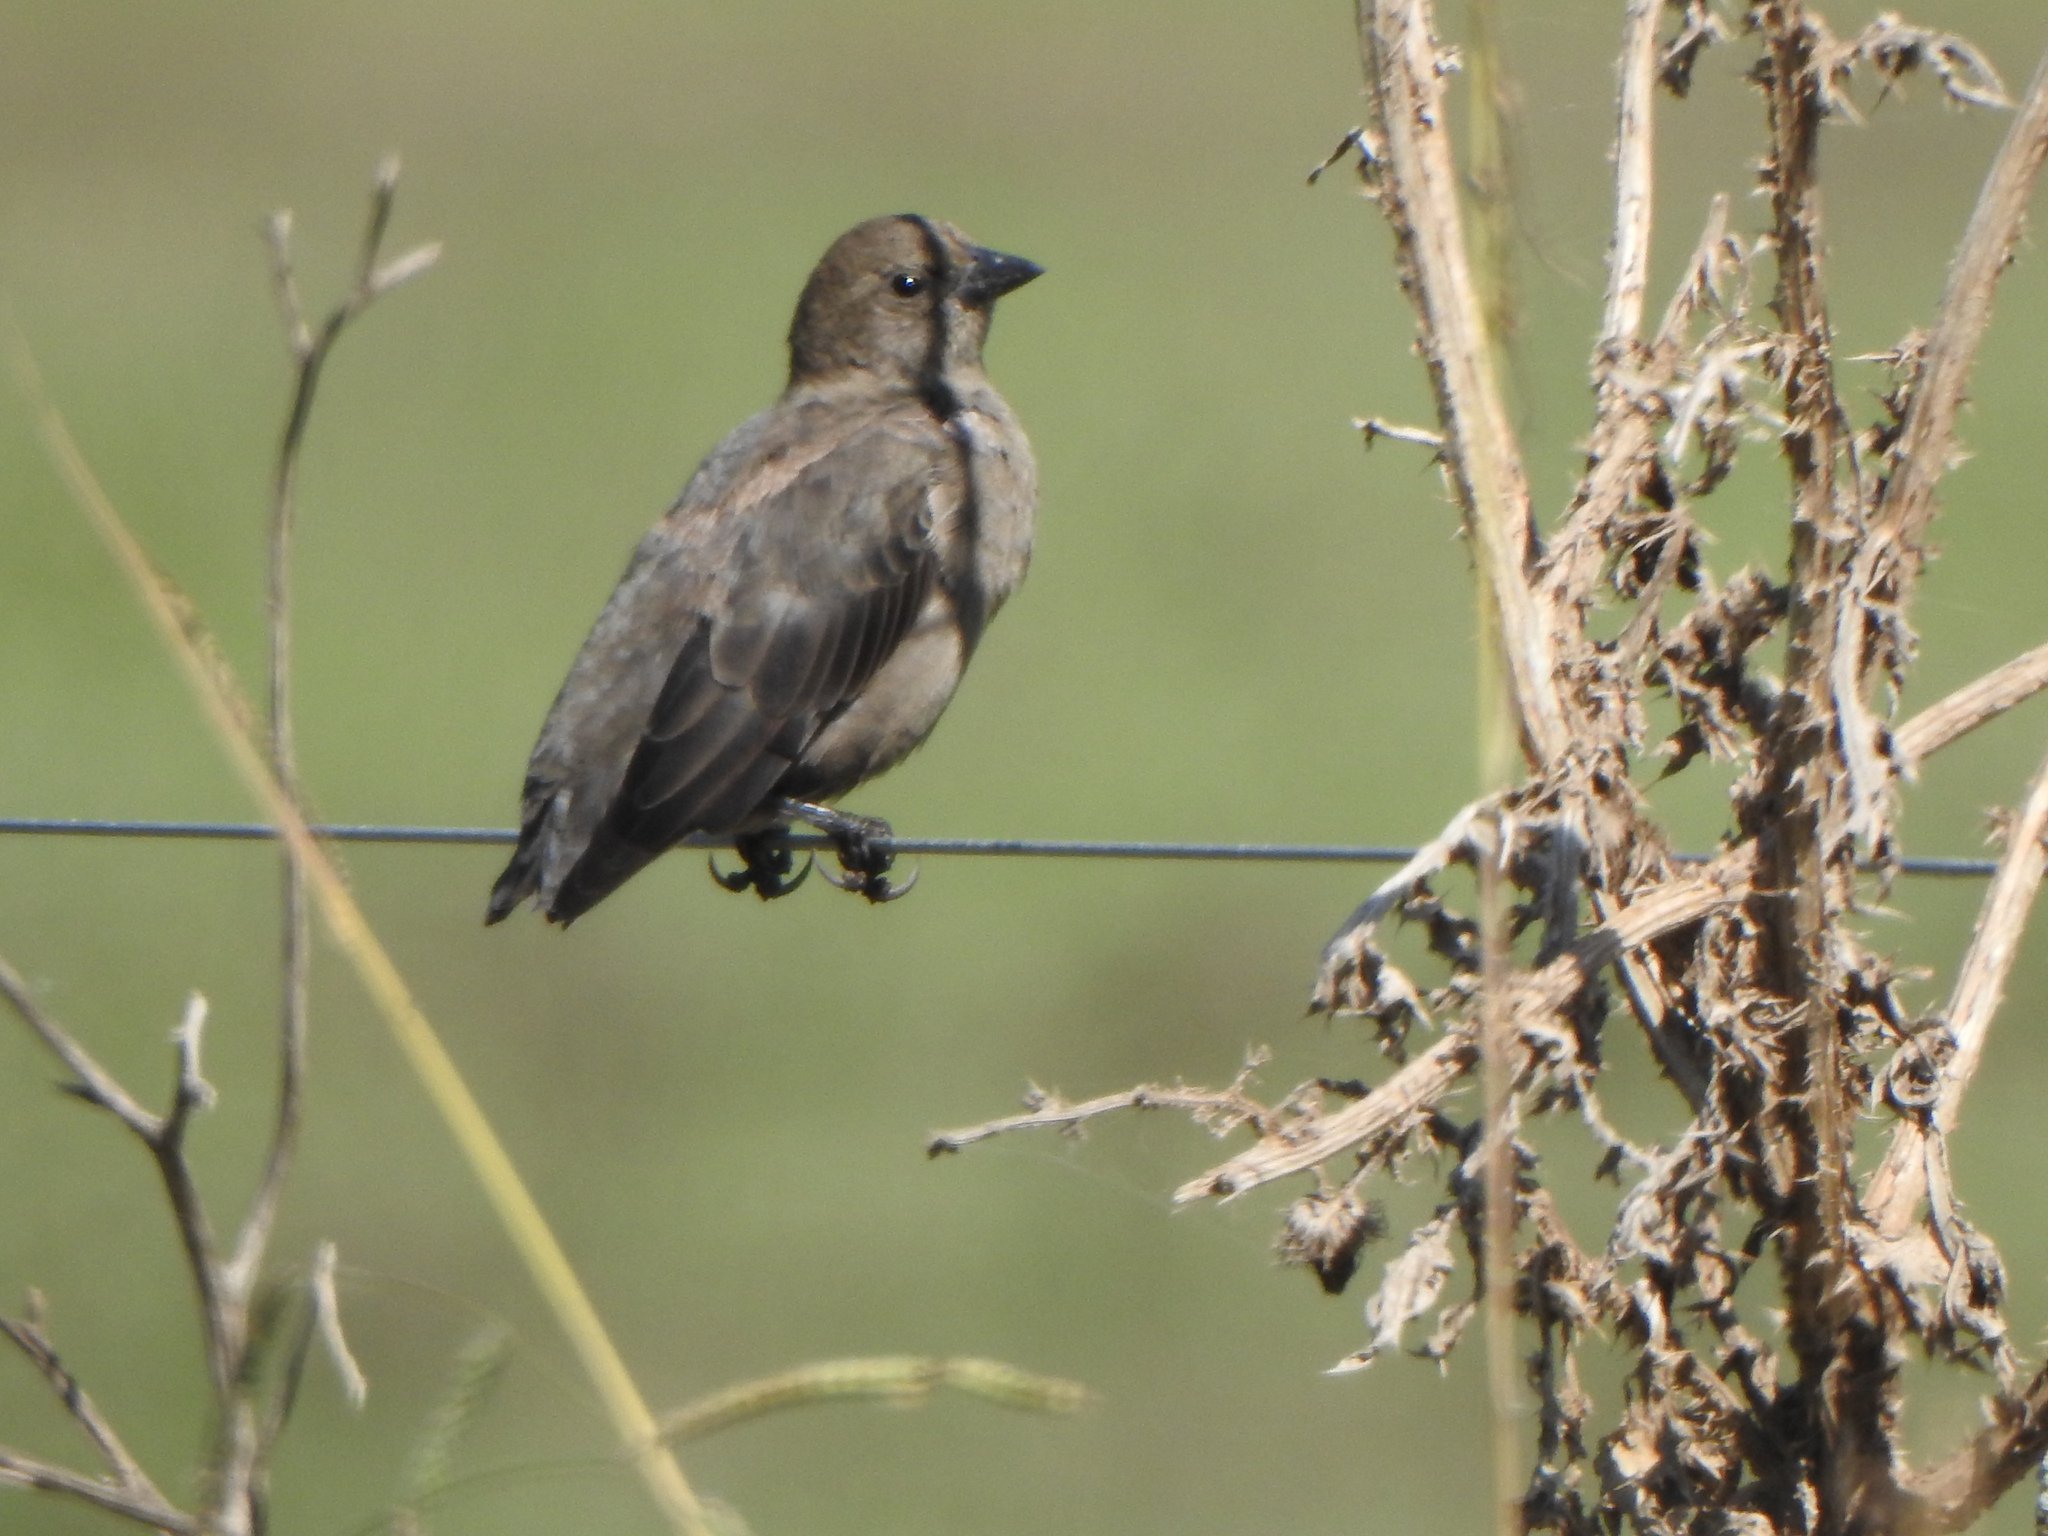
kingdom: Animalia
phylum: Chordata
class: Aves
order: Passeriformes
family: Icteridae
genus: Molothrus
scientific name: Molothrus bonariensis
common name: Shiny cowbird
